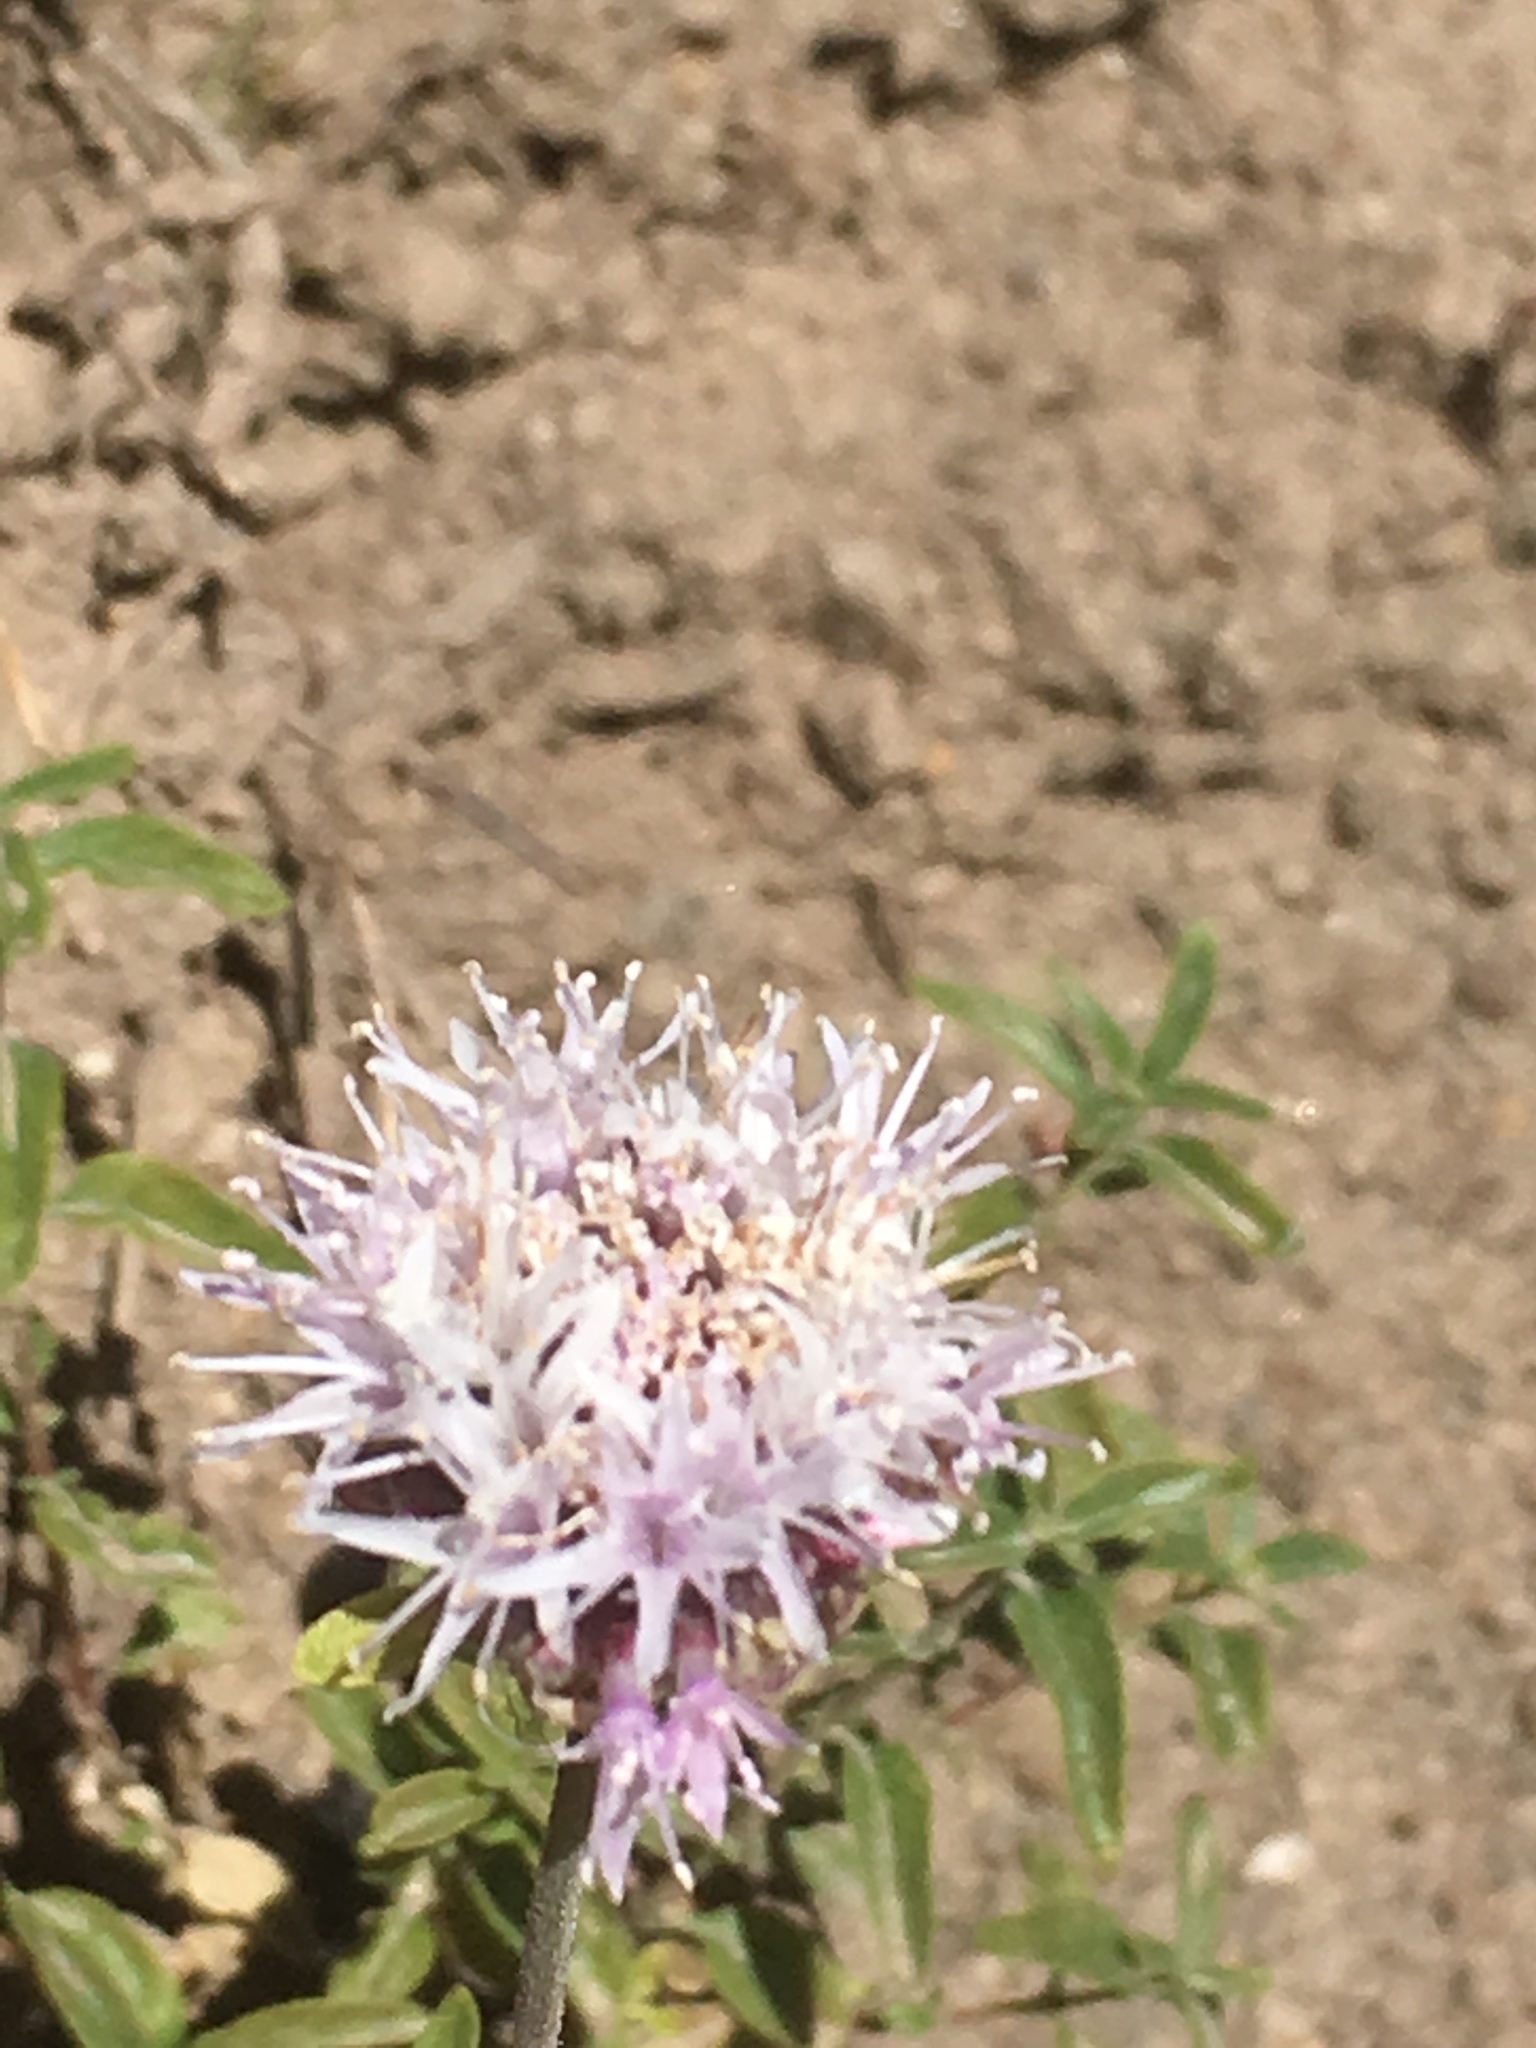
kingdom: Plantae
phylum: Tracheophyta
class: Magnoliopsida
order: Lamiales
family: Lamiaceae
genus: Monardella
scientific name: Monardella odoratissima
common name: Pacific monardella
